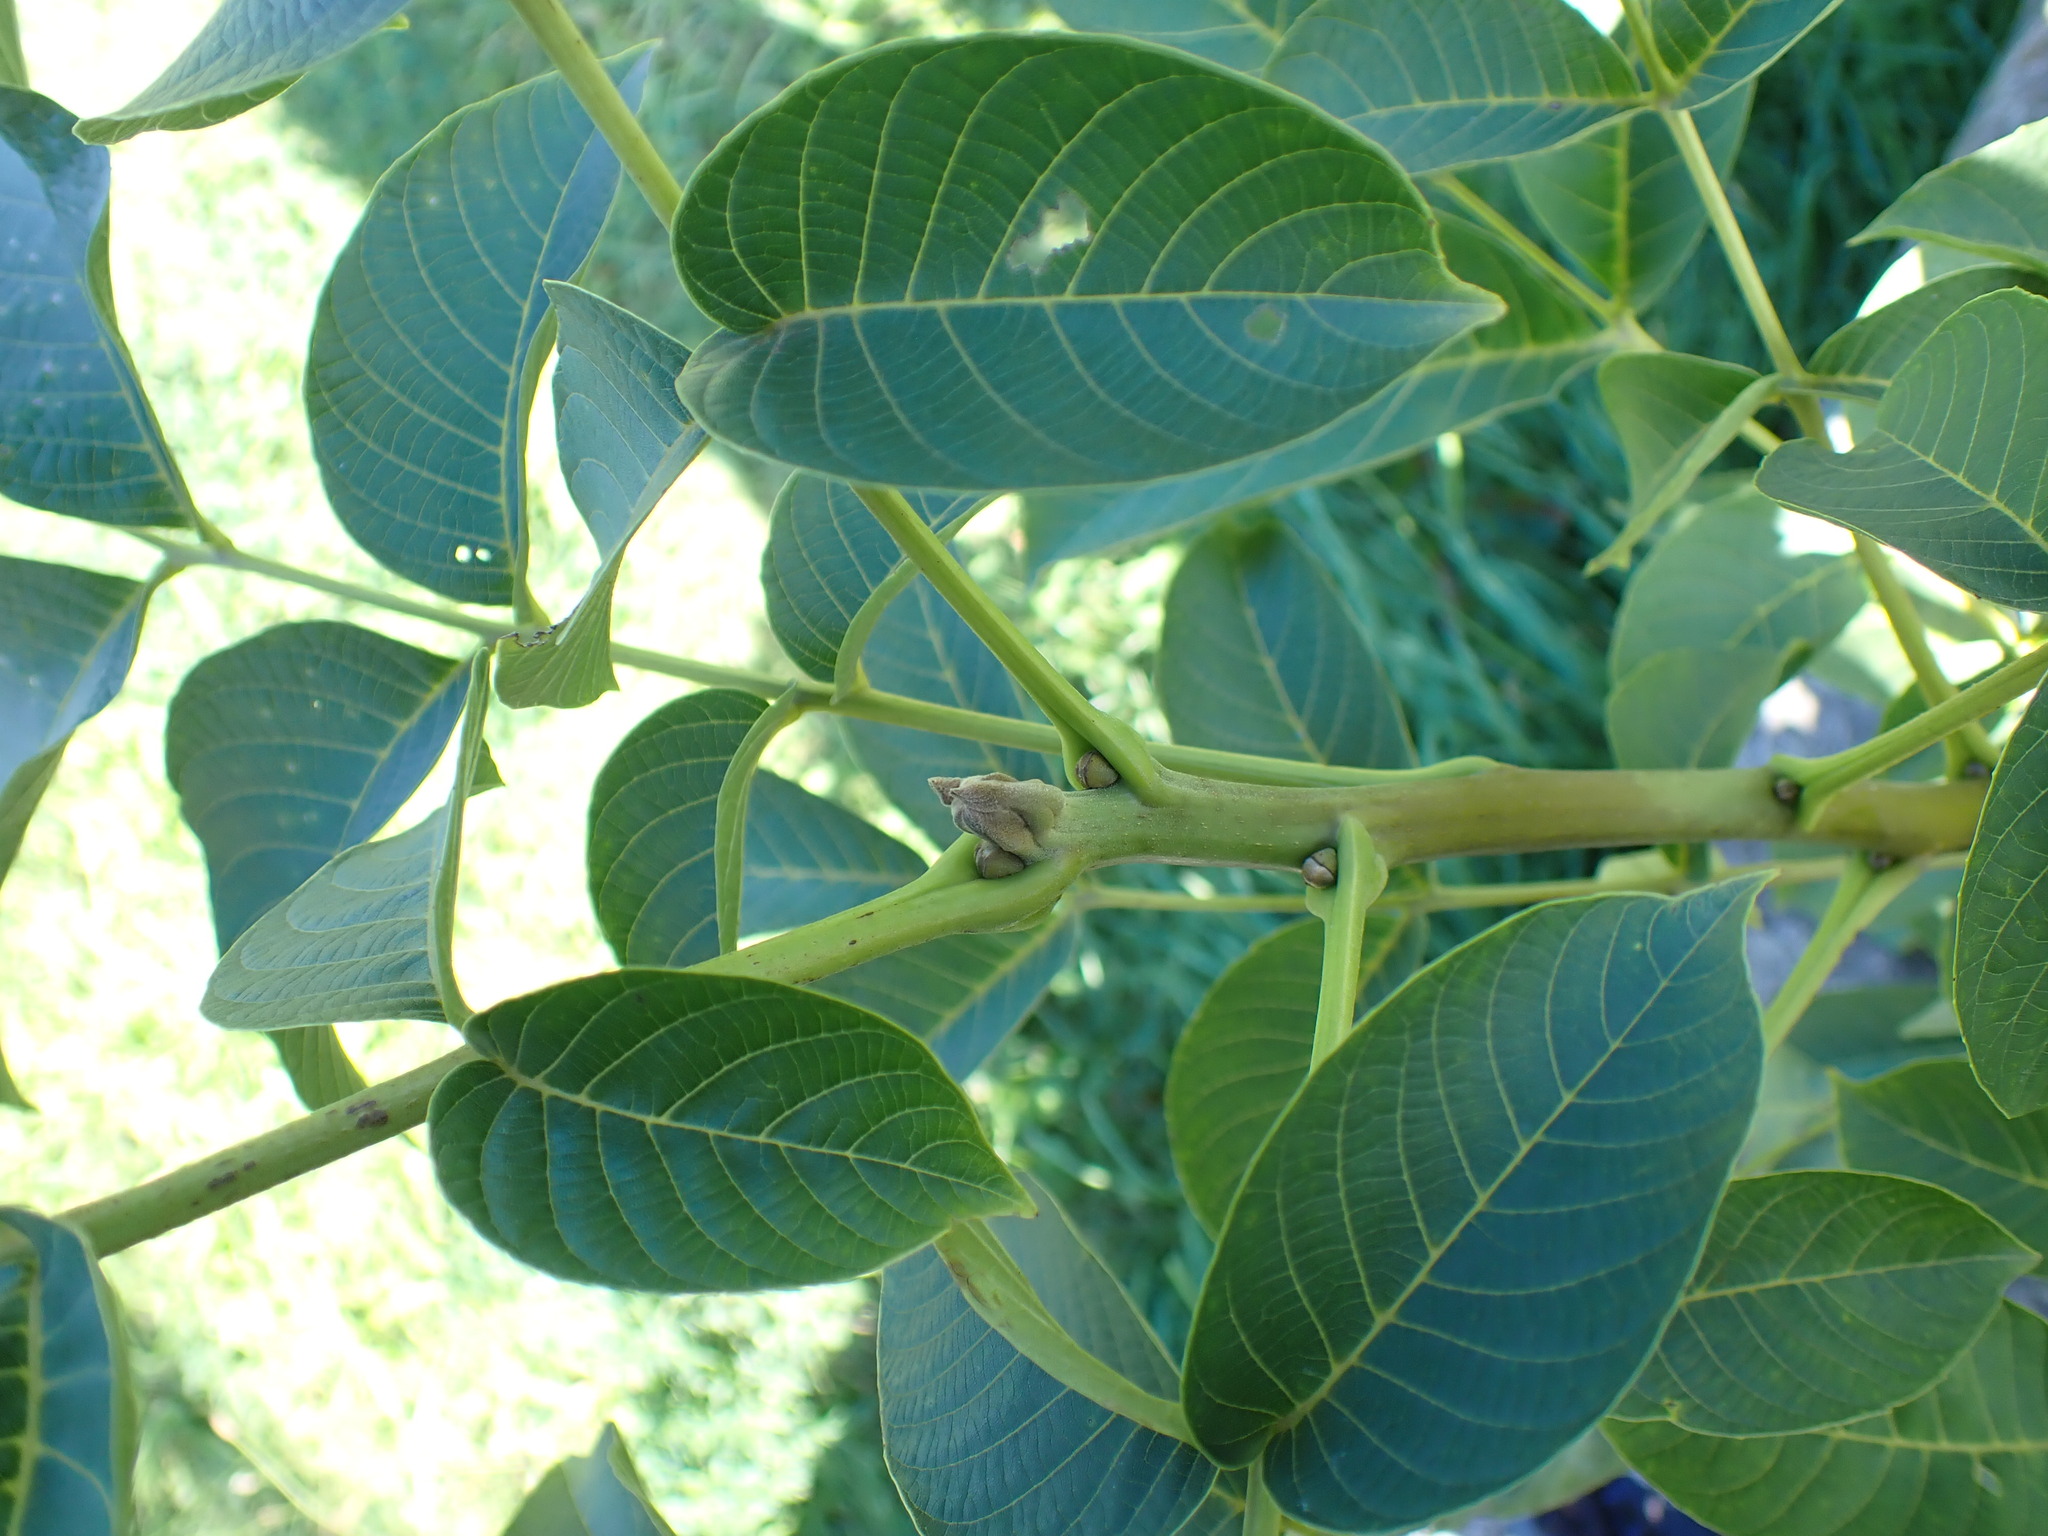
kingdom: Plantae
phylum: Tracheophyta
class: Magnoliopsida
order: Fagales
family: Juglandaceae
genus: Juglans
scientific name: Juglans regia
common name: Walnut
